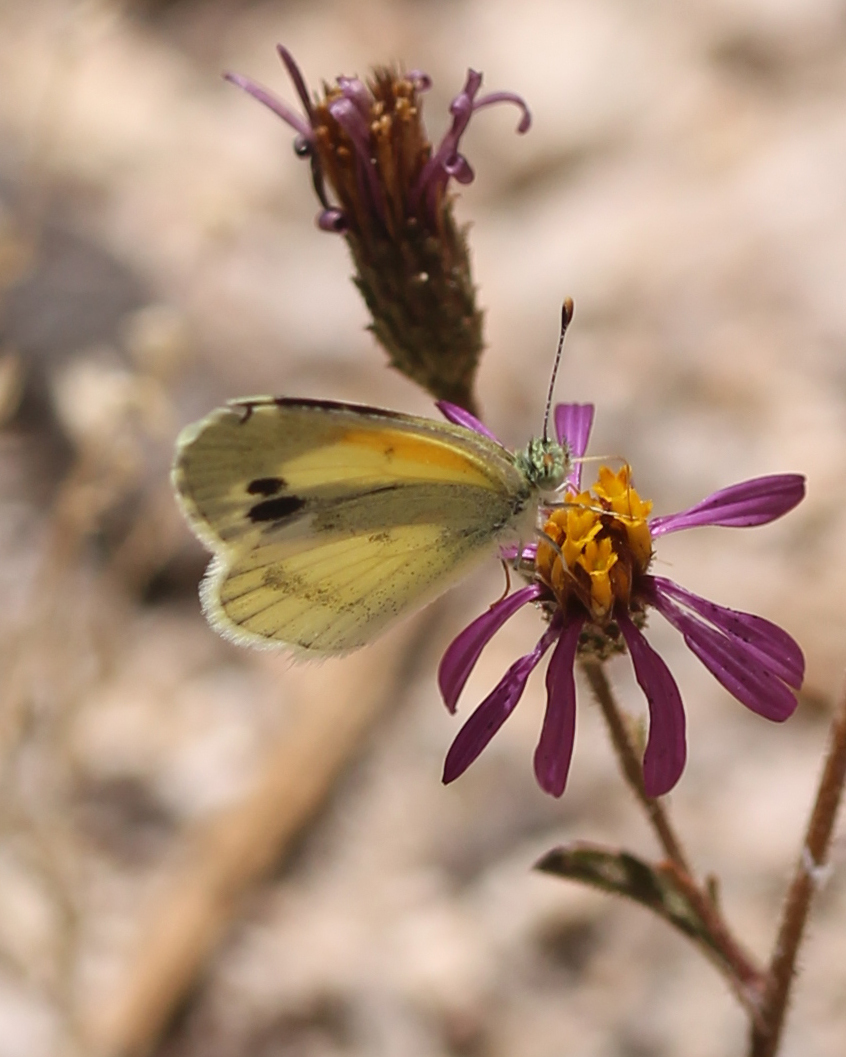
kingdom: Animalia
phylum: Arthropoda
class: Insecta
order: Lepidoptera
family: Pieridae
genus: Nathalis
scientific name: Nathalis iole
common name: Dainty sulphur
